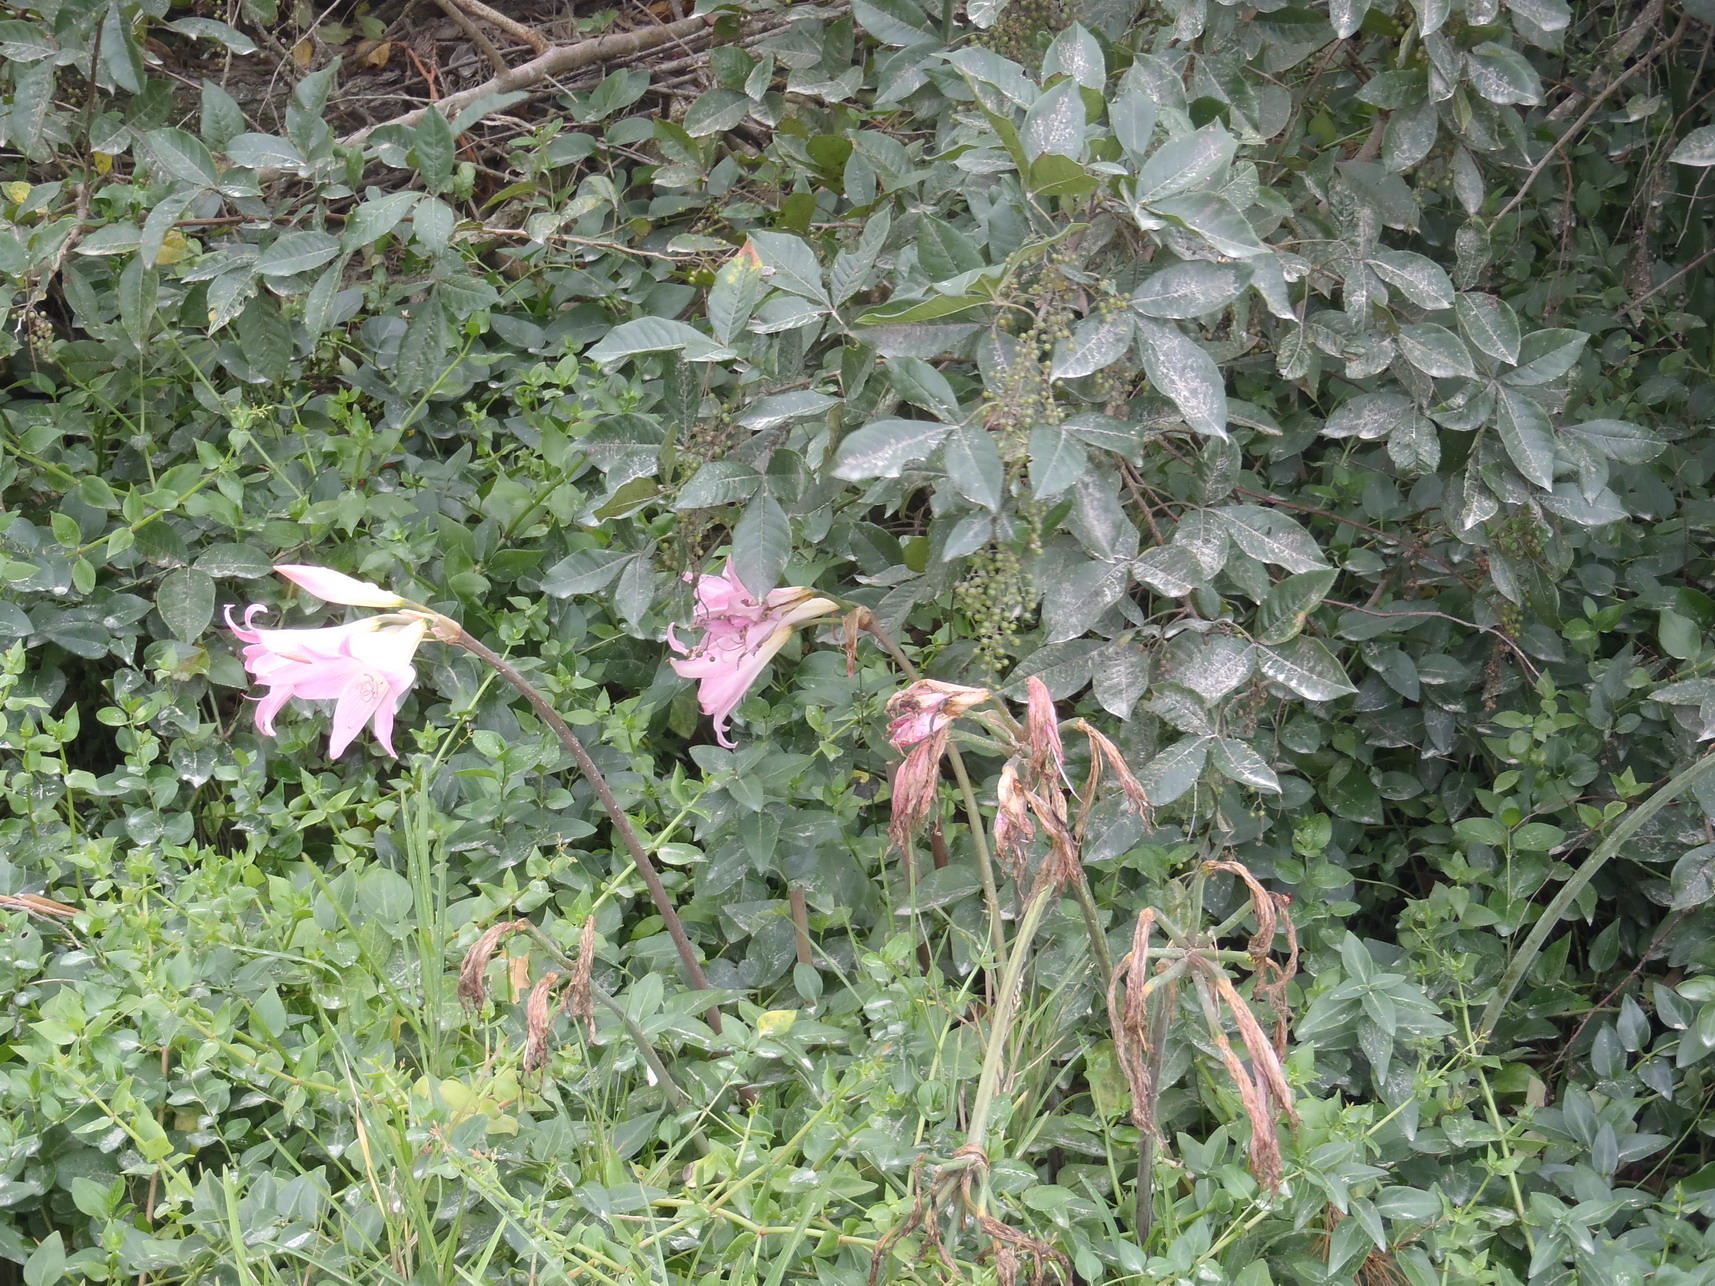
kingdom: Plantae
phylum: Tracheophyta
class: Liliopsida
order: Asparagales
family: Amaryllidaceae
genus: Amaryllis
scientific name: Amaryllis belladonna
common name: Jersey lily
